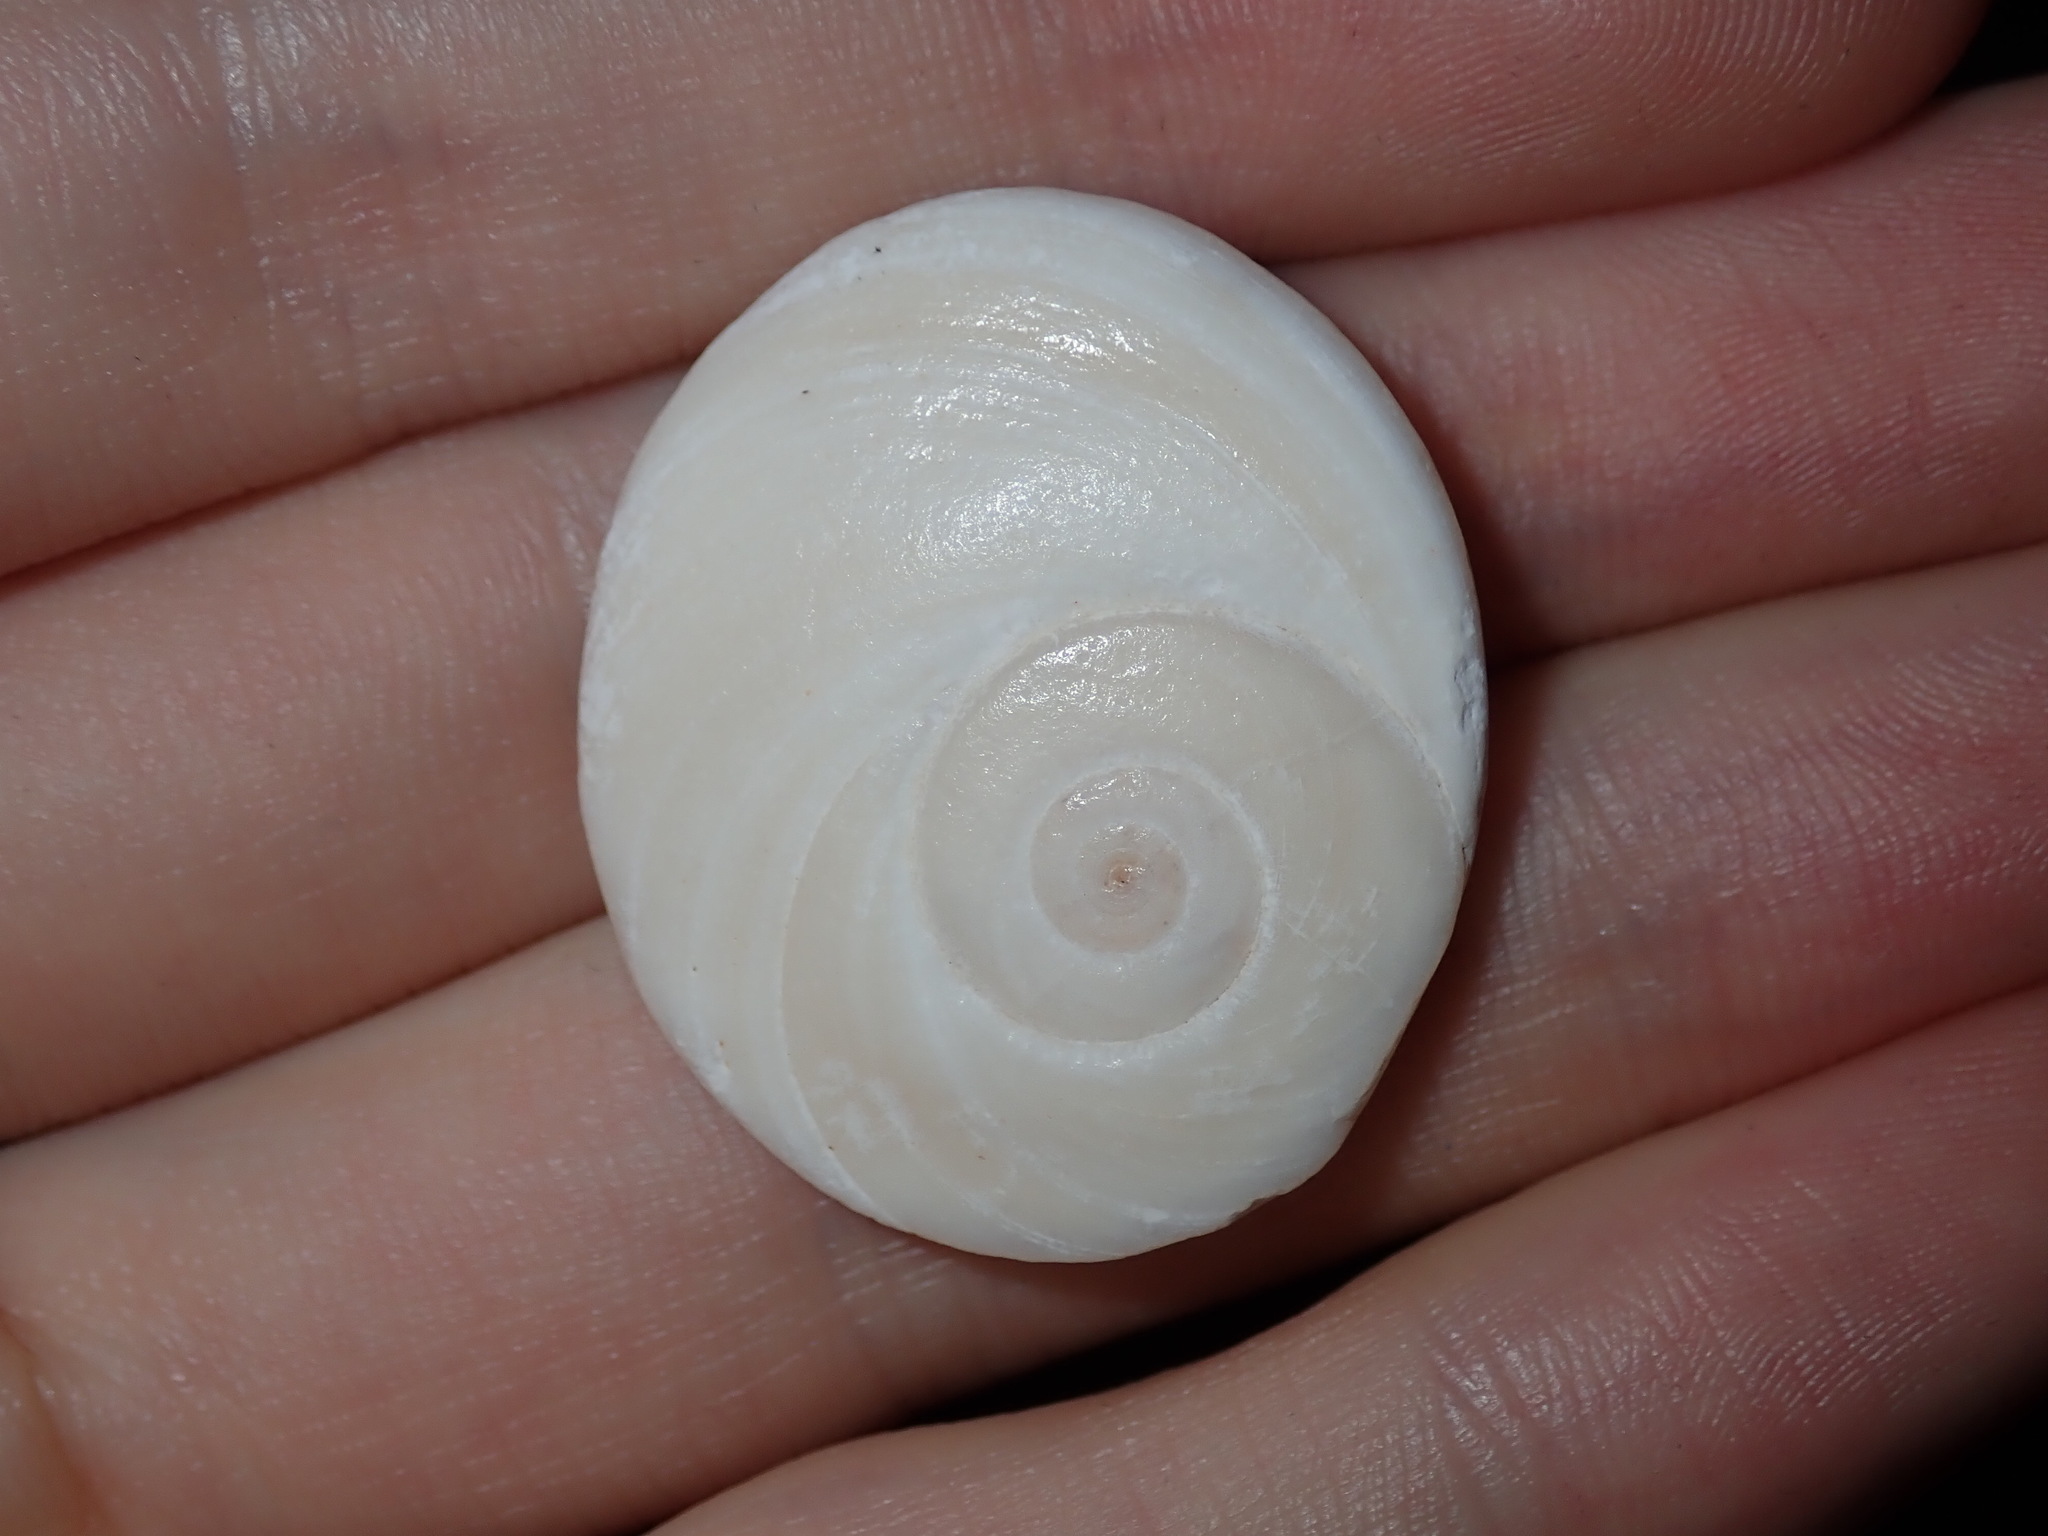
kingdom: Animalia
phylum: Mollusca
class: Gastropoda
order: Trochida
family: Turbinidae
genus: Lunella
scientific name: Lunella torquata
